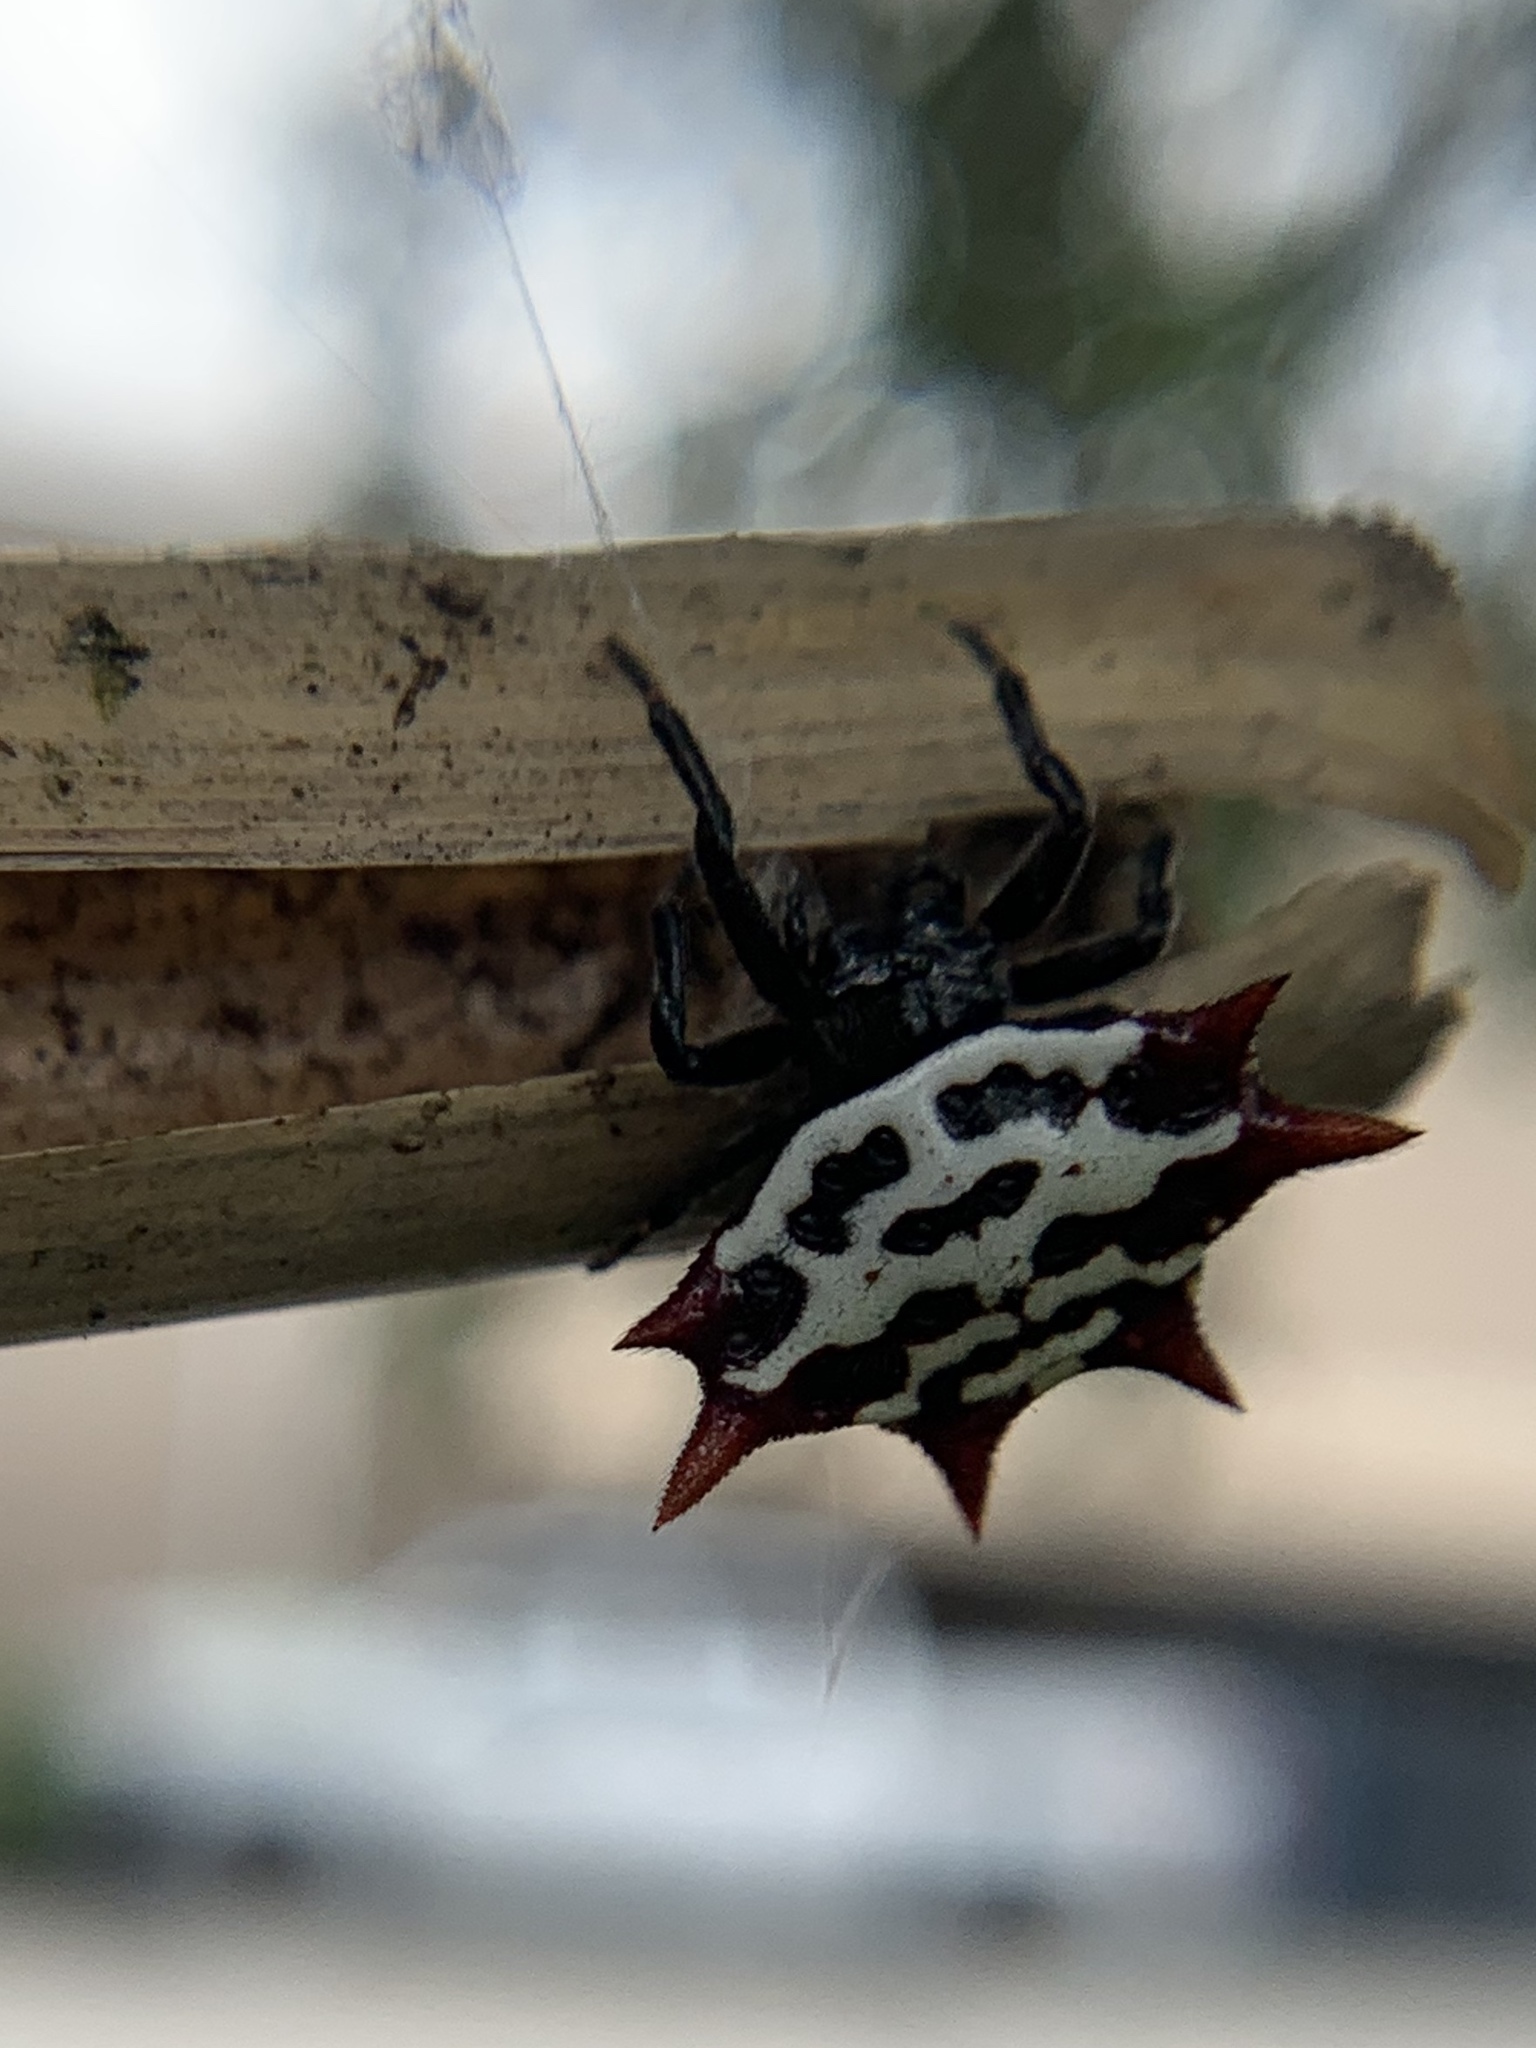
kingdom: Animalia
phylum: Arthropoda
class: Arachnida
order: Araneae
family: Araneidae
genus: Gasteracantha
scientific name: Gasteracantha cancriformis
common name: Orb weavers
